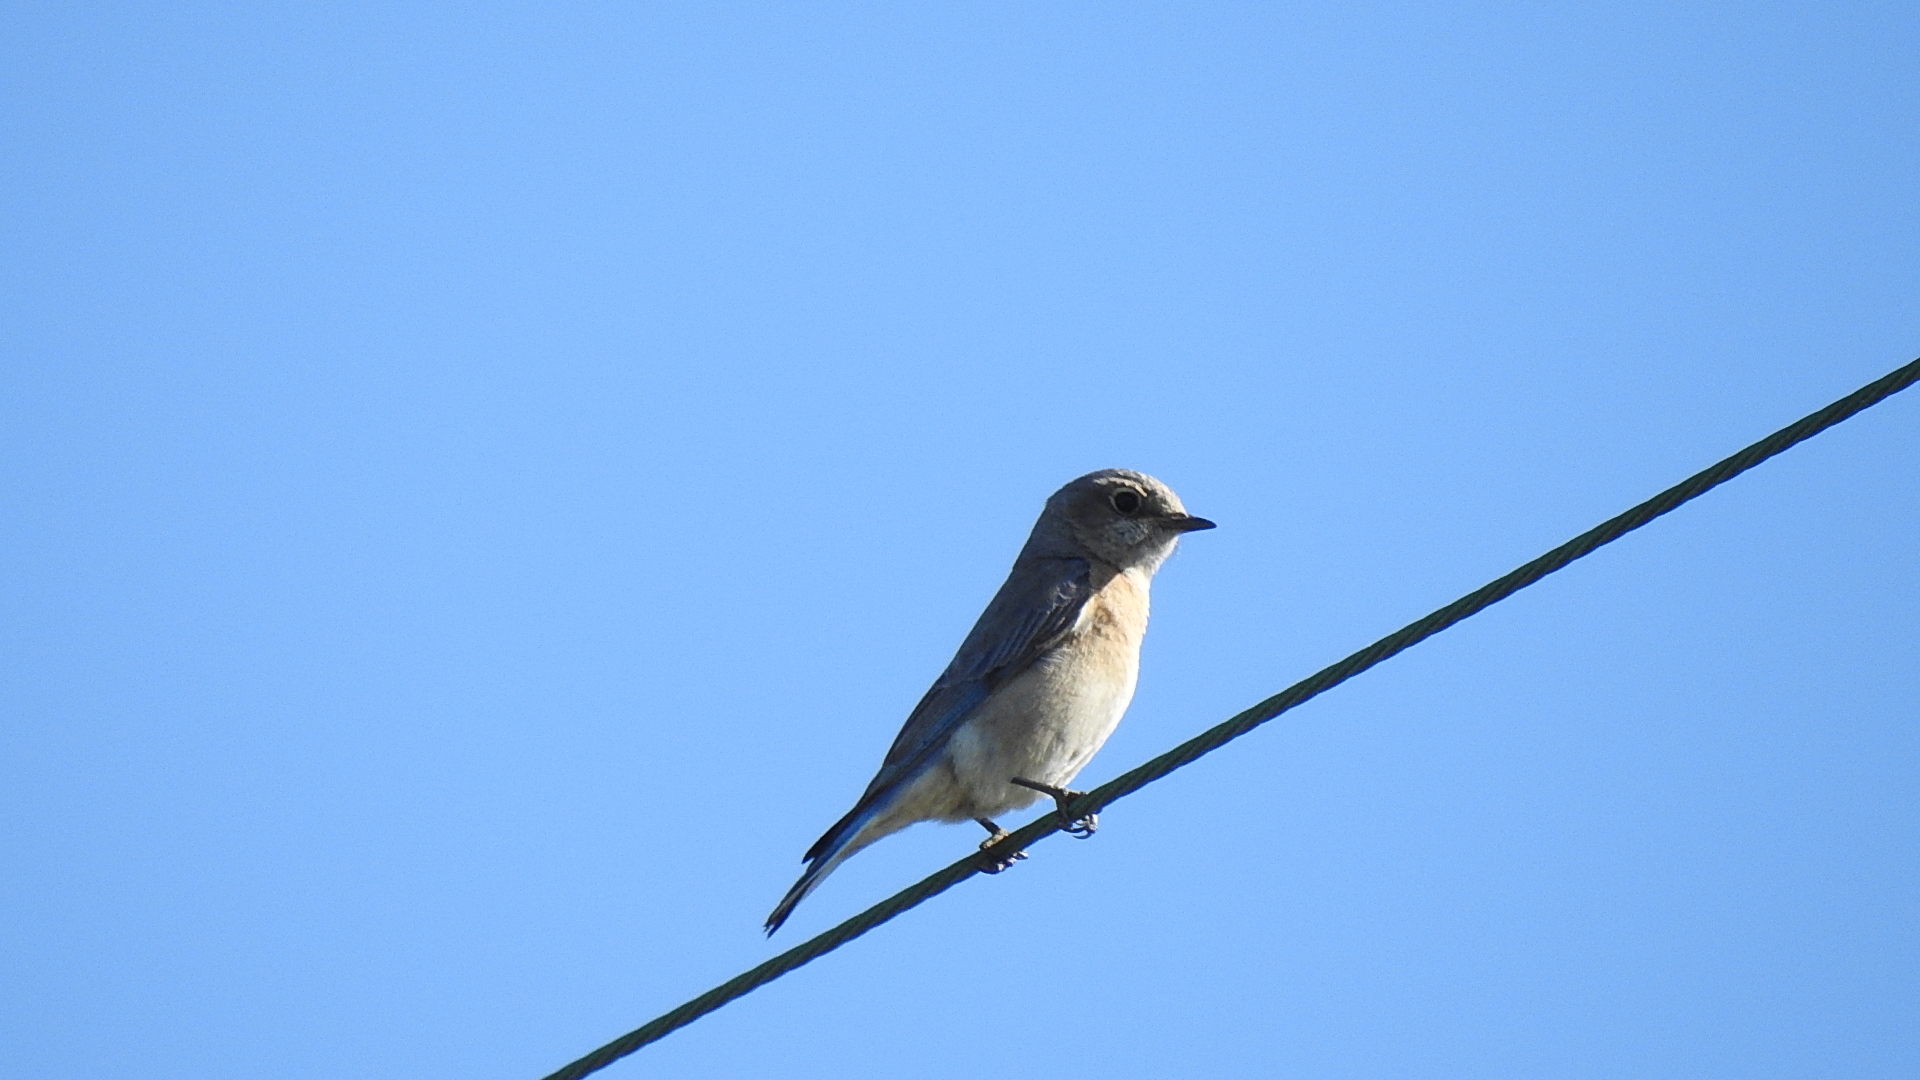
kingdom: Animalia
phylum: Chordata
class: Aves
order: Passeriformes
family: Turdidae
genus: Sialia
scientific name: Sialia mexicana
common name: Western bluebird
